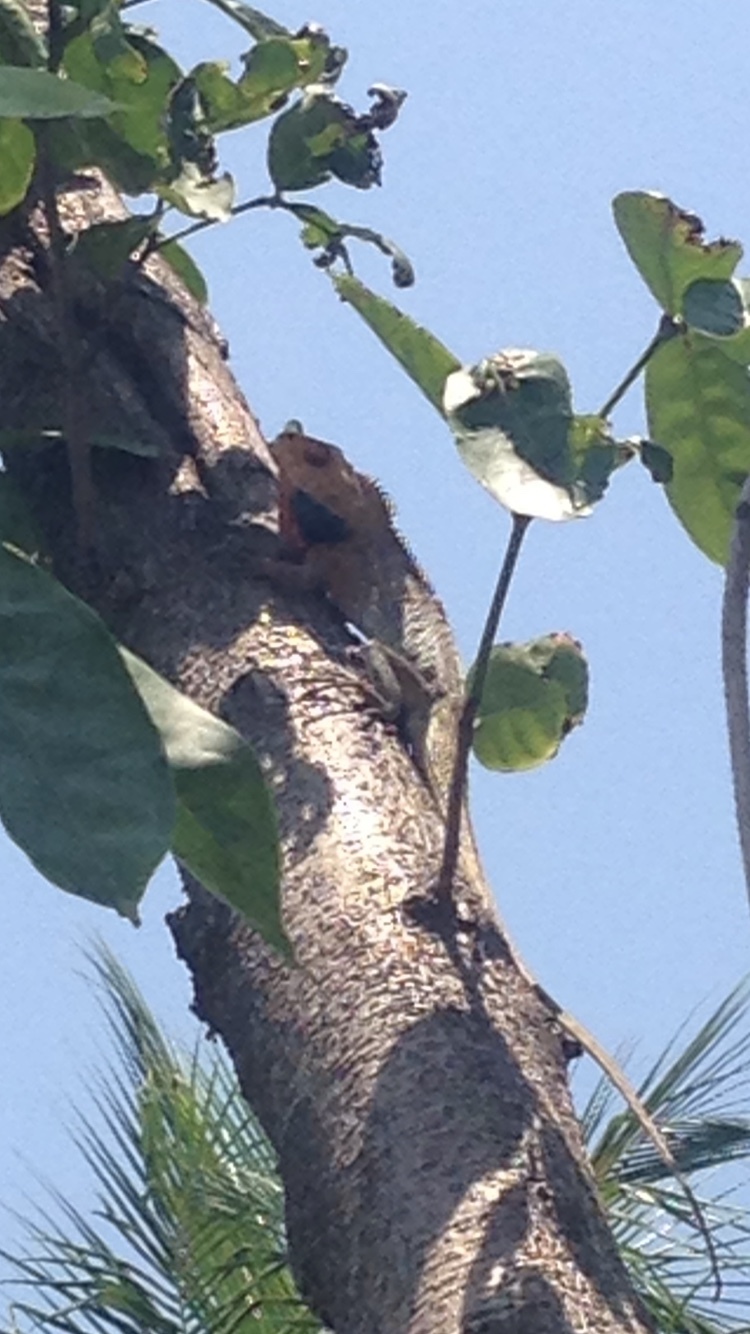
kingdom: Animalia
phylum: Chordata
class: Squamata
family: Agamidae
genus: Calotes
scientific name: Calotes versicolor
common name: Oriental garden lizard
